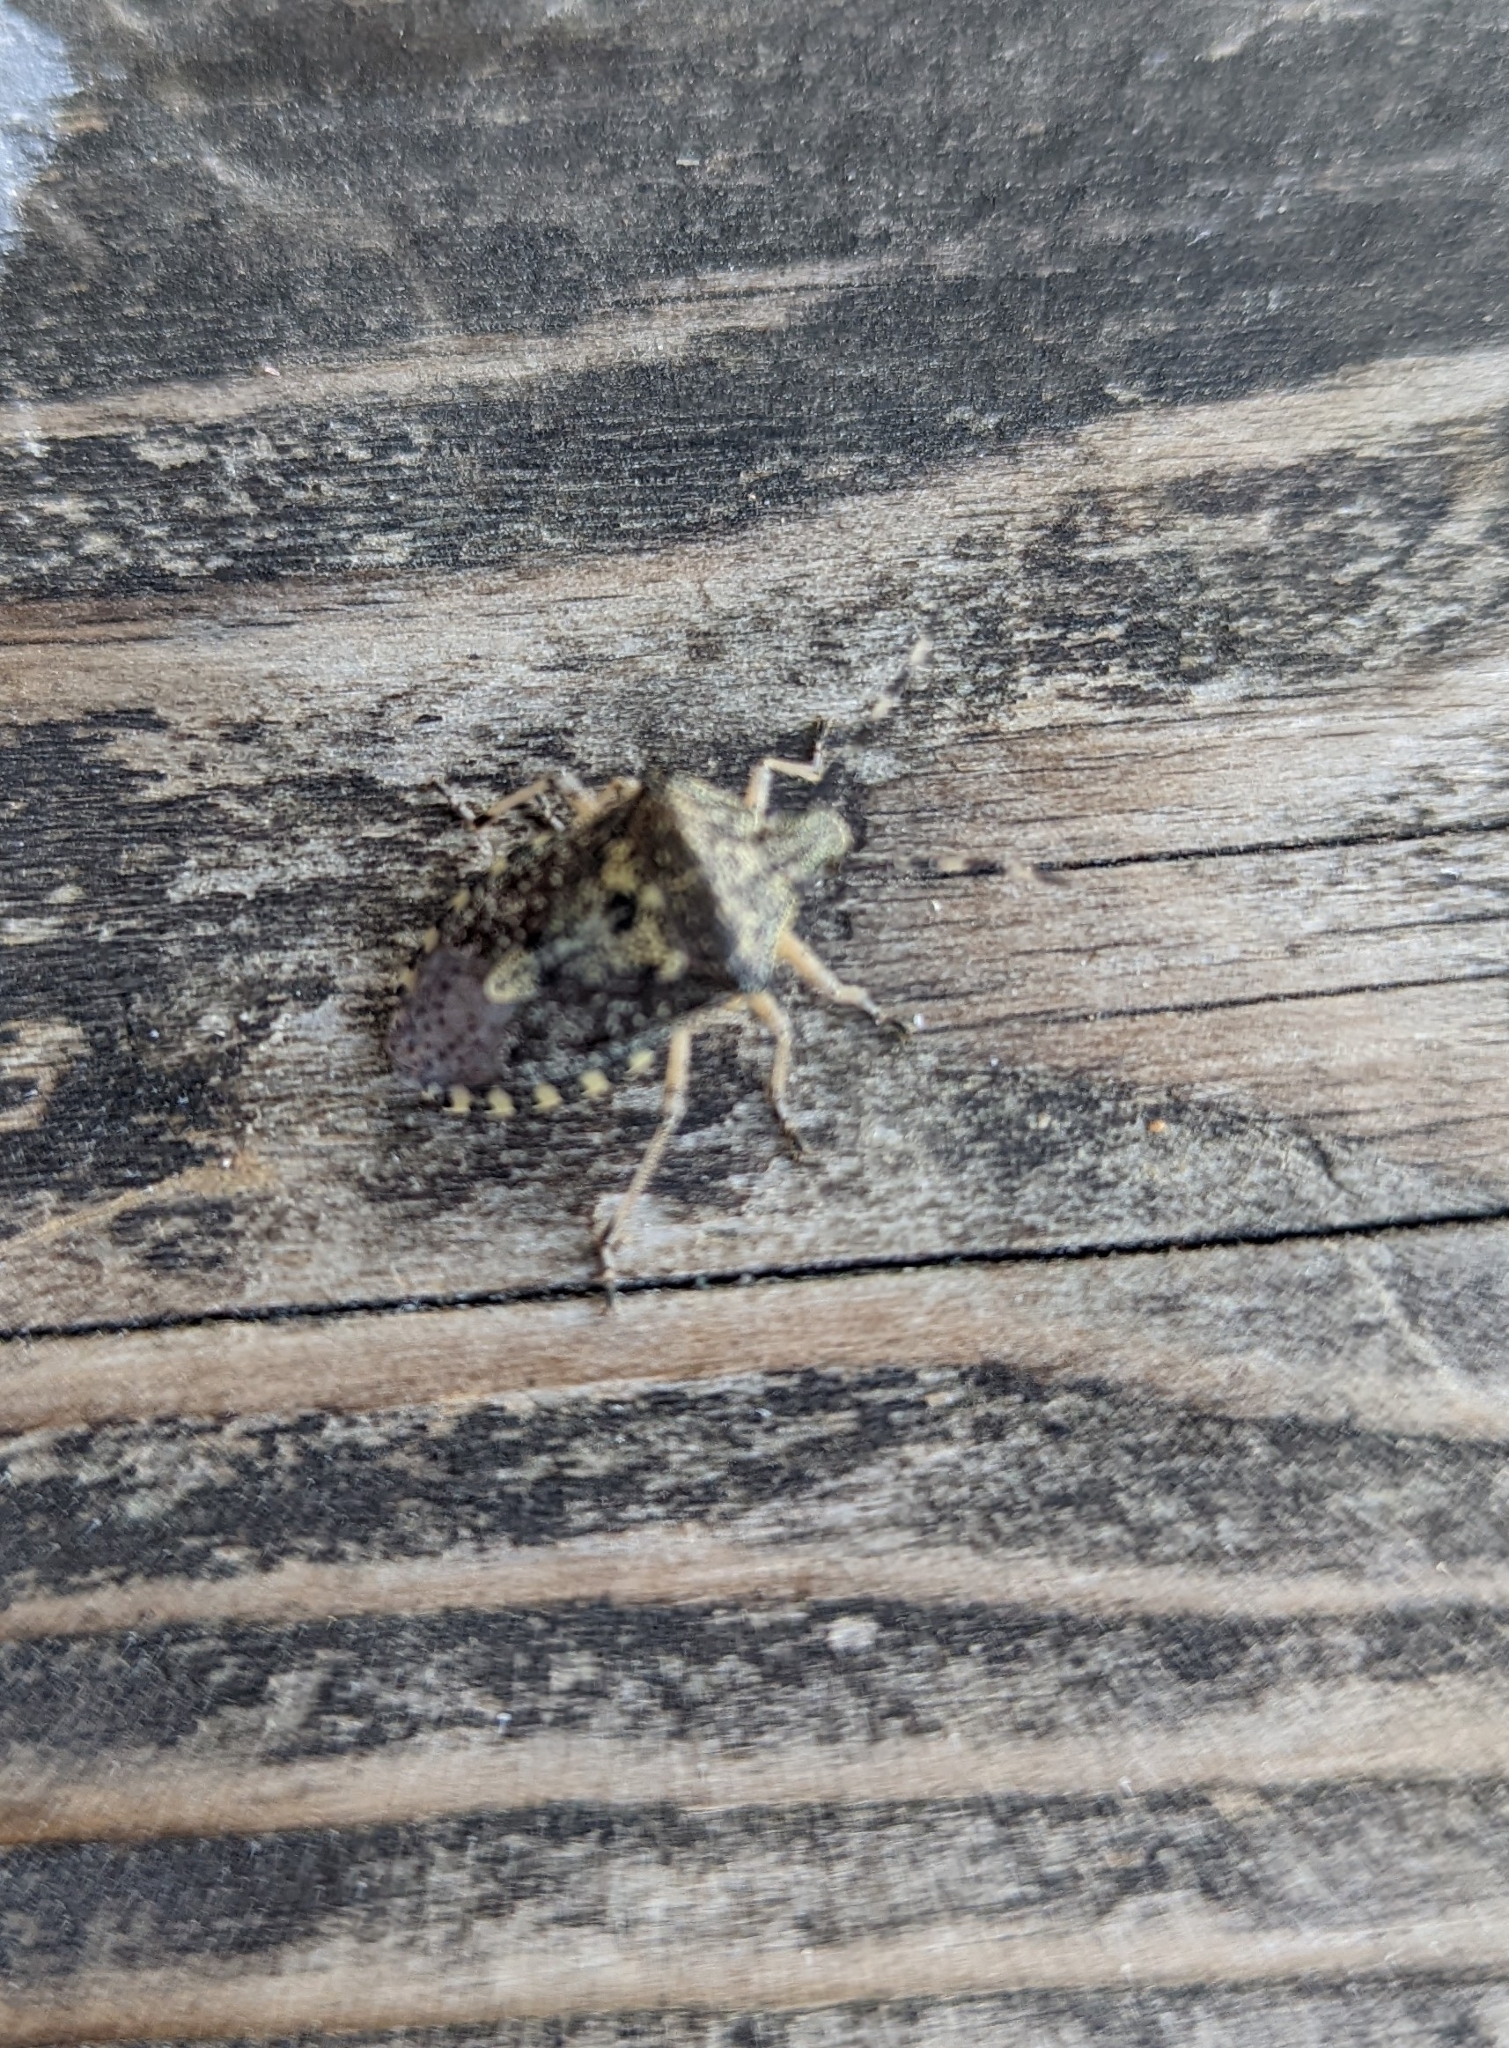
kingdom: Animalia
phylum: Arthropoda
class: Insecta
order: Hemiptera
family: Pentatomidae
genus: Rhaphigaster
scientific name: Rhaphigaster nebulosa
